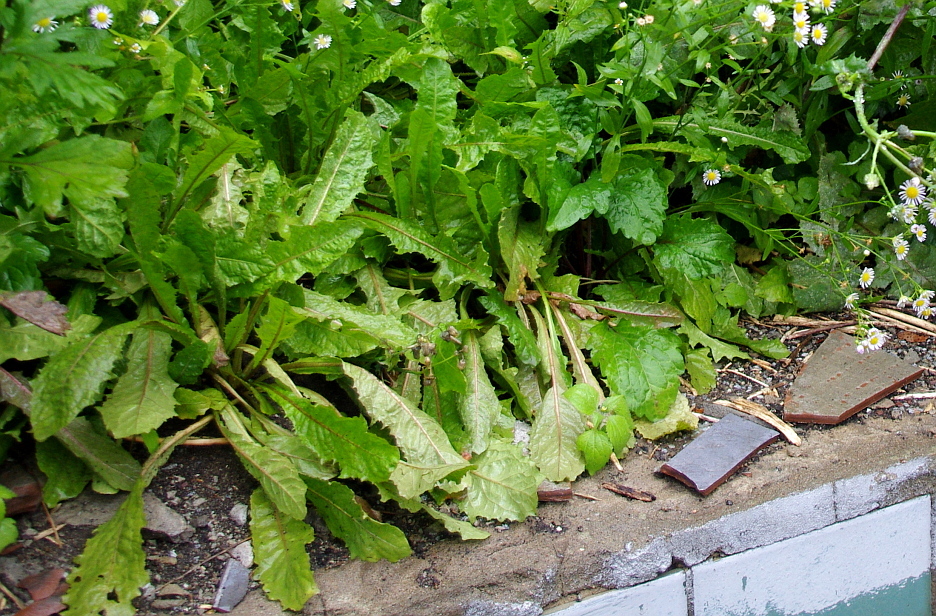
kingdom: Plantae
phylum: Tracheophyta
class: Magnoliopsida
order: Asterales
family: Asteraceae
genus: Taraxacum
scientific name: Taraxacum officinale
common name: Common dandelion
